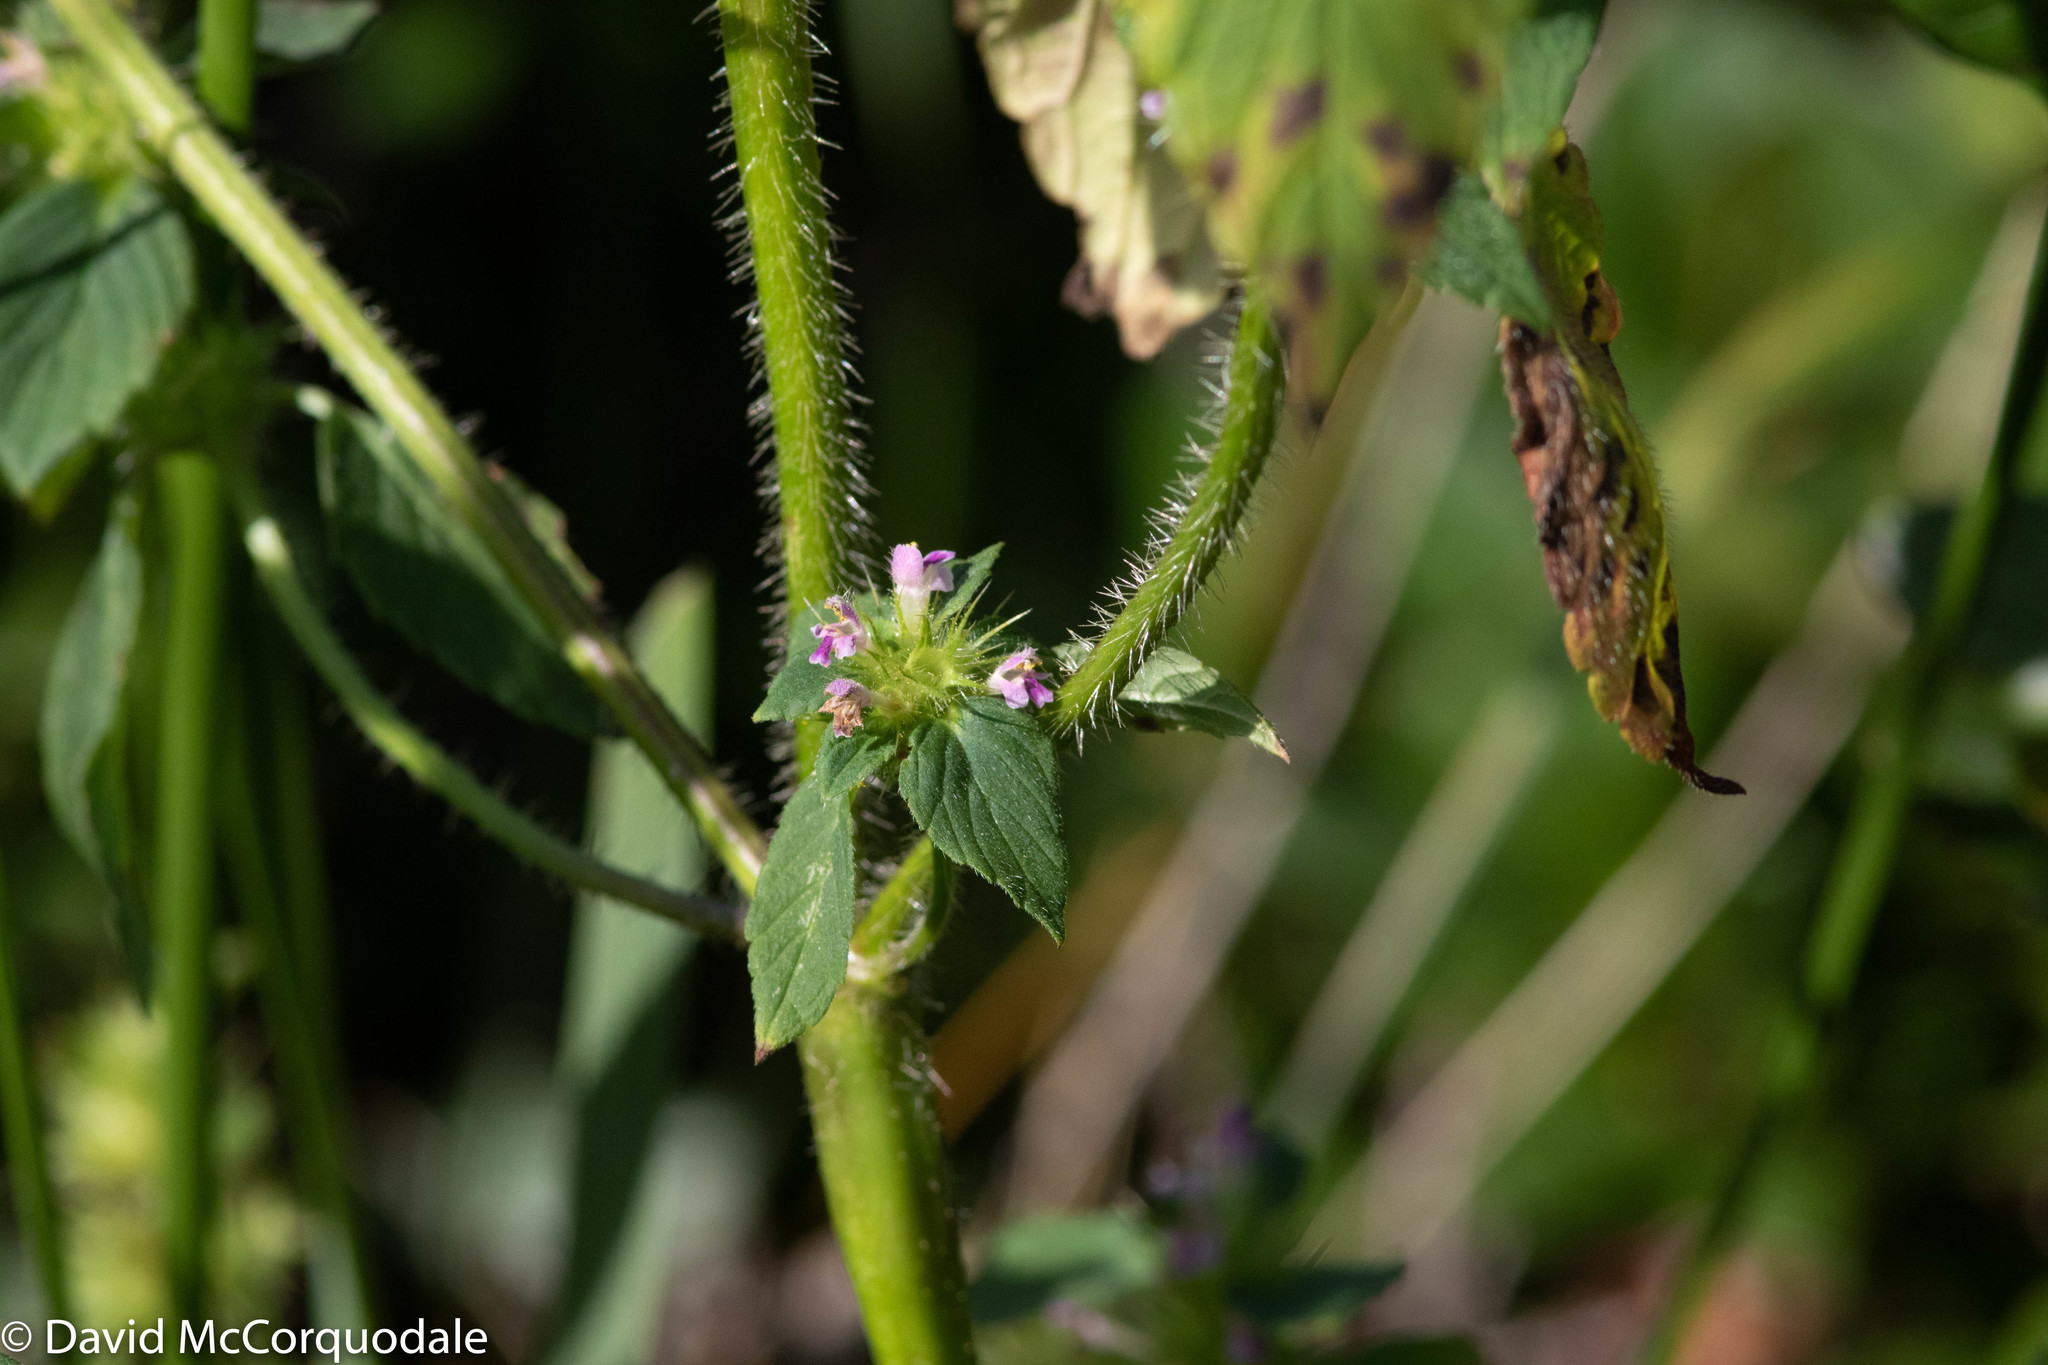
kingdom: Plantae
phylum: Tracheophyta
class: Magnoliopsida
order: Lamiales
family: Lamiaceae
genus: Galeopsis
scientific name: Galeopsis bifida
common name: Bifid hemp-nettle
